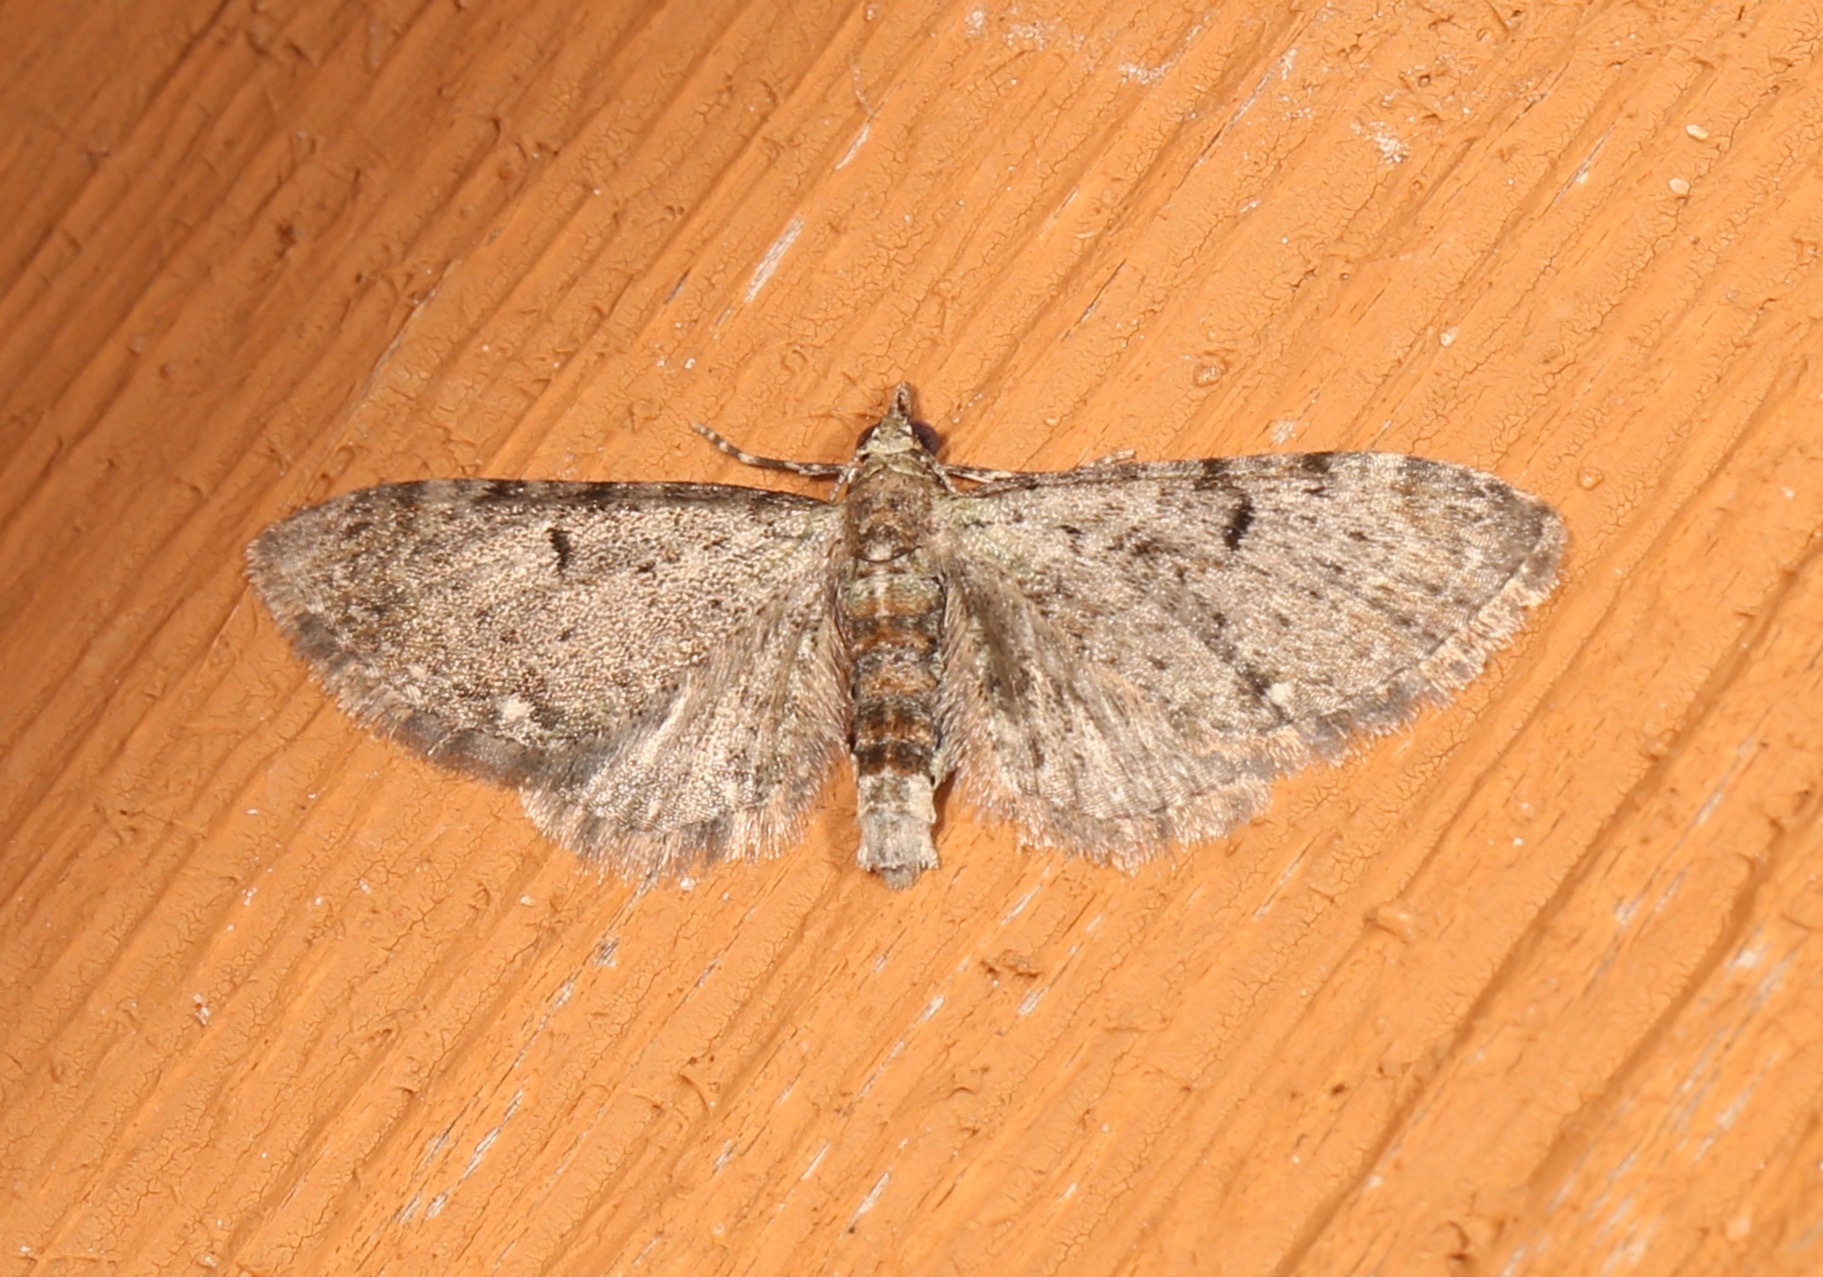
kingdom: Animalia
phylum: Arthropoda
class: Insecta
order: Lepidoptera
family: Geometridae
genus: Eupithecia
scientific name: Eupithecia miserulata
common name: Common eupithecia
